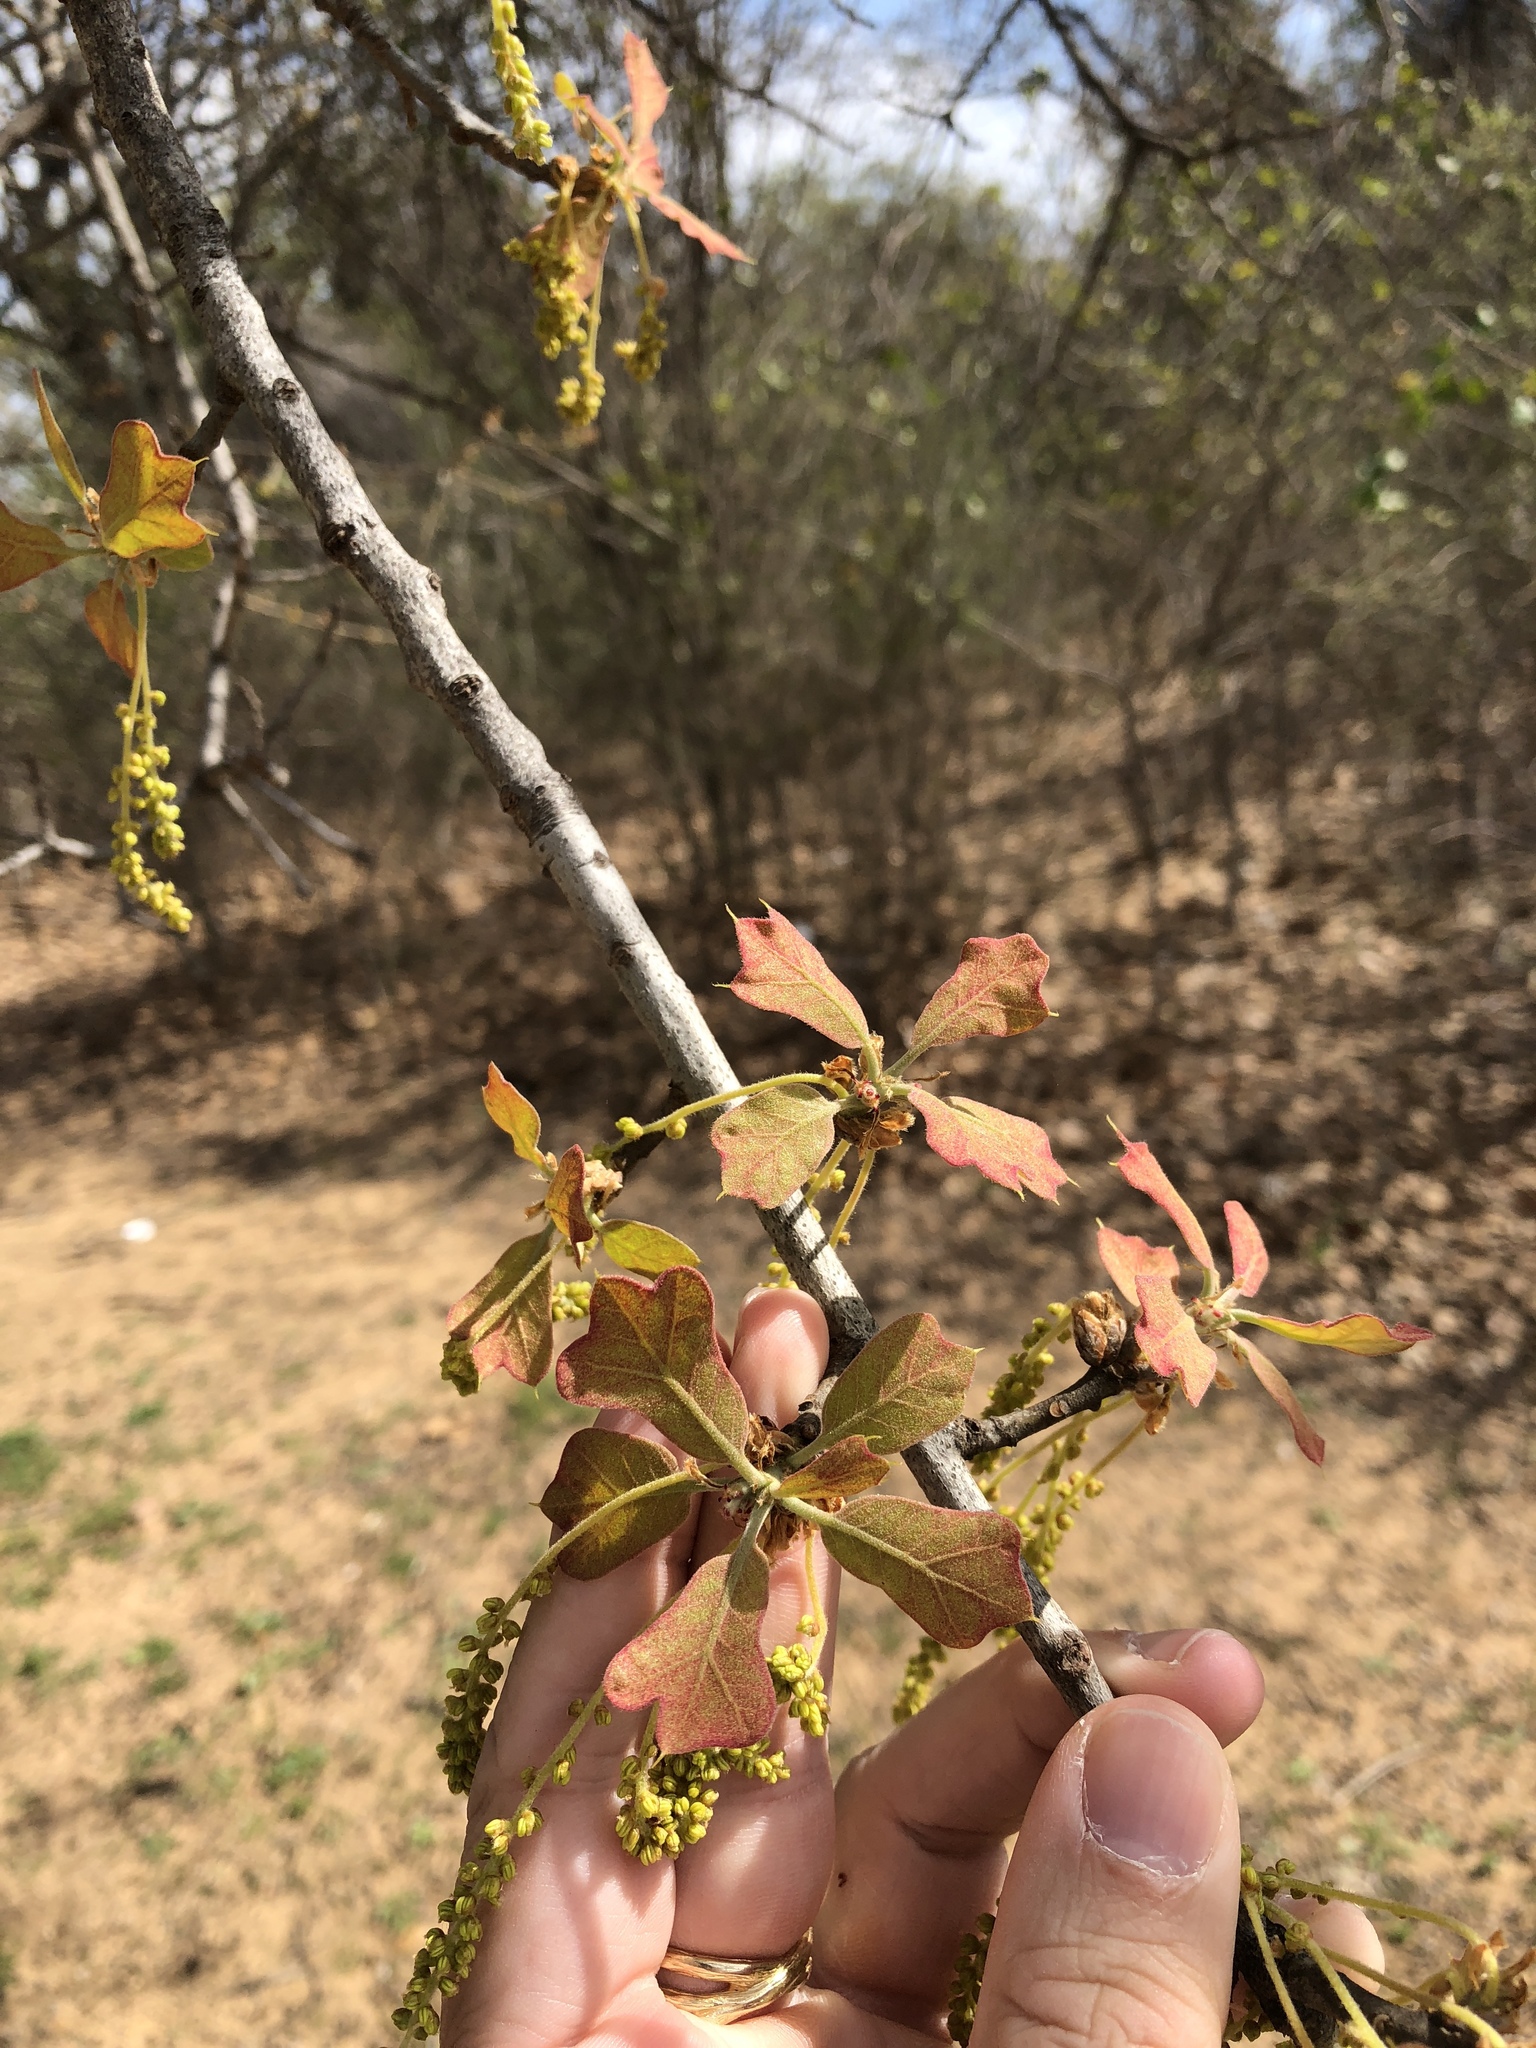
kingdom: Plantae
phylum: Tracheophyta
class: Magnoliopsida
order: Fagales
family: Fagaceae
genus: Quercus
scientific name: Quercus marilandica
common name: Blackjack oak
